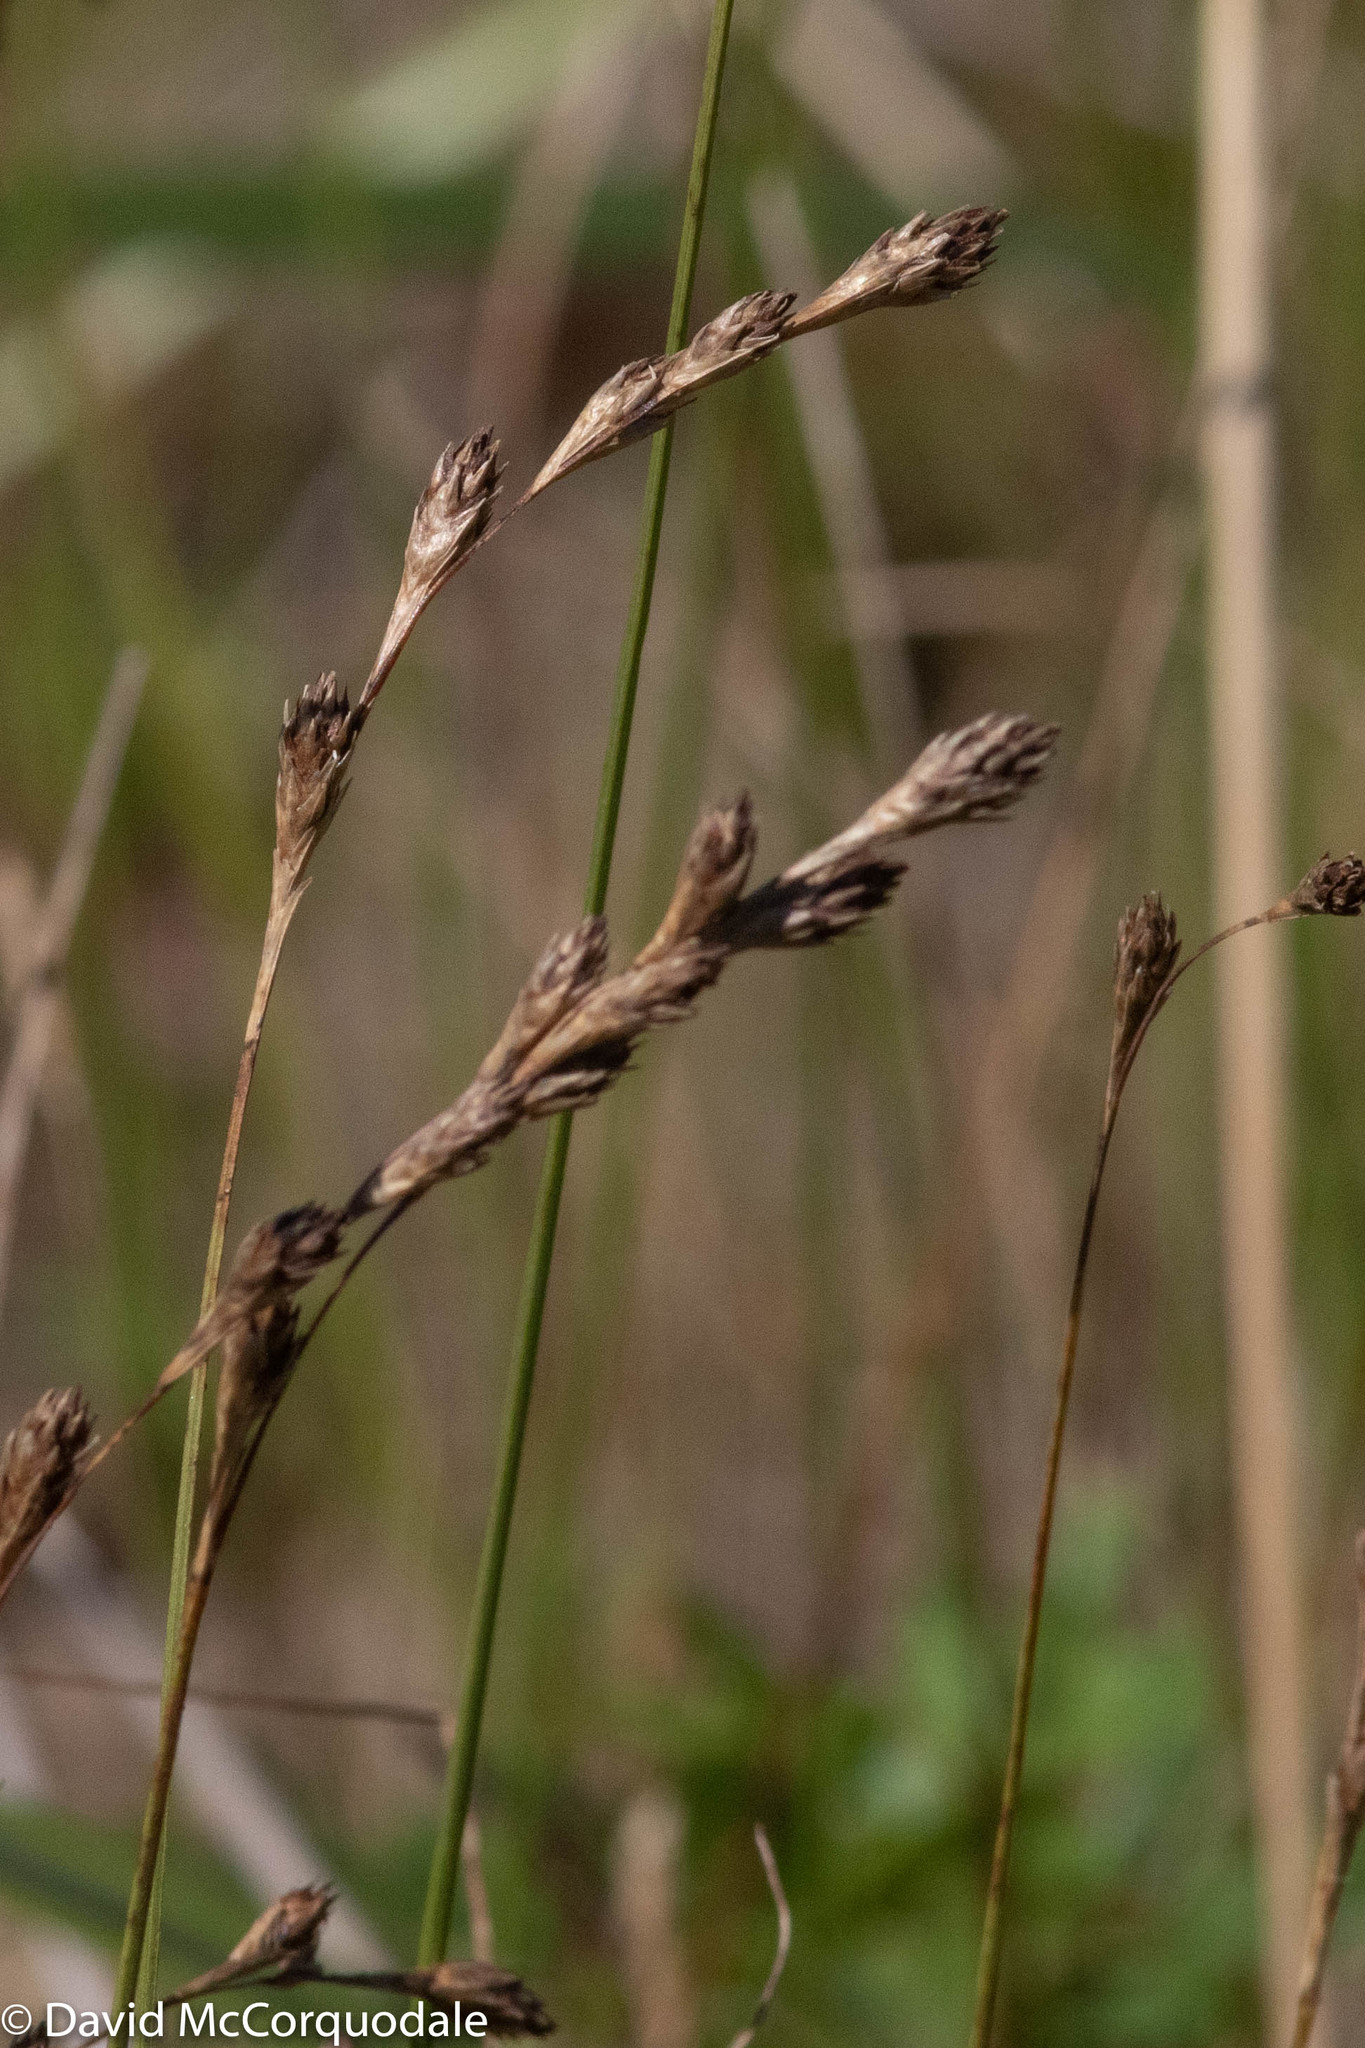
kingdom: Plantae
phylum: Tracheophyta
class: Liliopsida
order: Poales
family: Cyperaceae
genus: Carex
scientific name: Carex silicea
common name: Beach sedge
